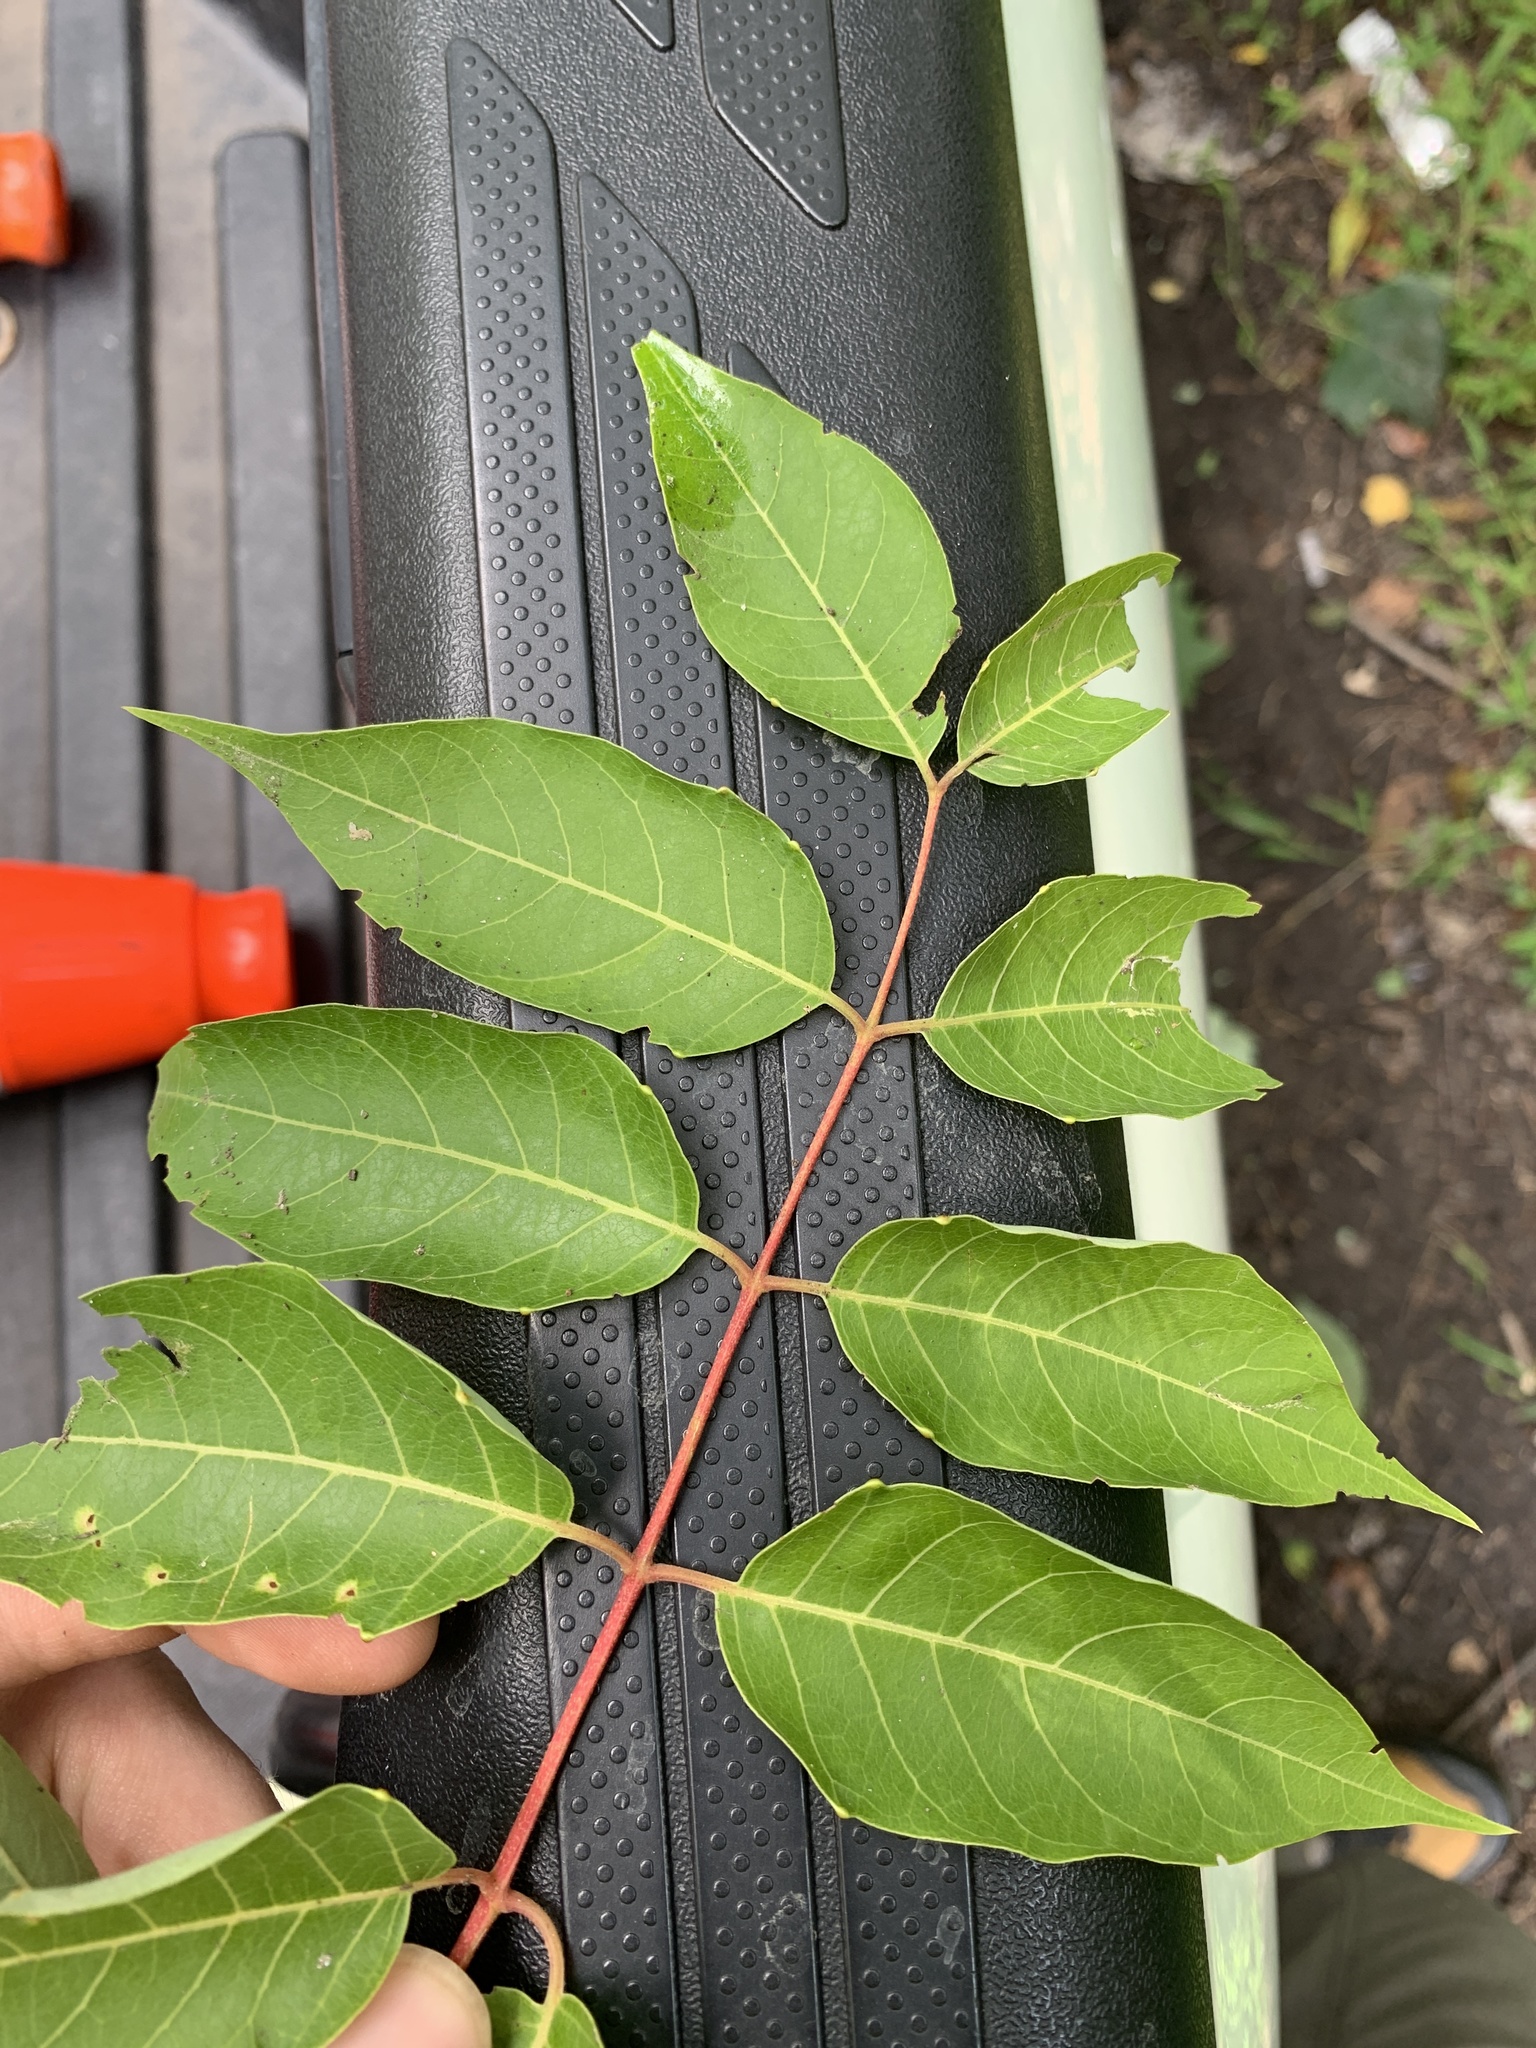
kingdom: Plantae
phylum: Tracheophyta
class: Magnoliopsida
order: Sapindales
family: Simaroubaceae
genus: Ailanthus
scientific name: Ailanthus altissima
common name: Tree-of-heaven
